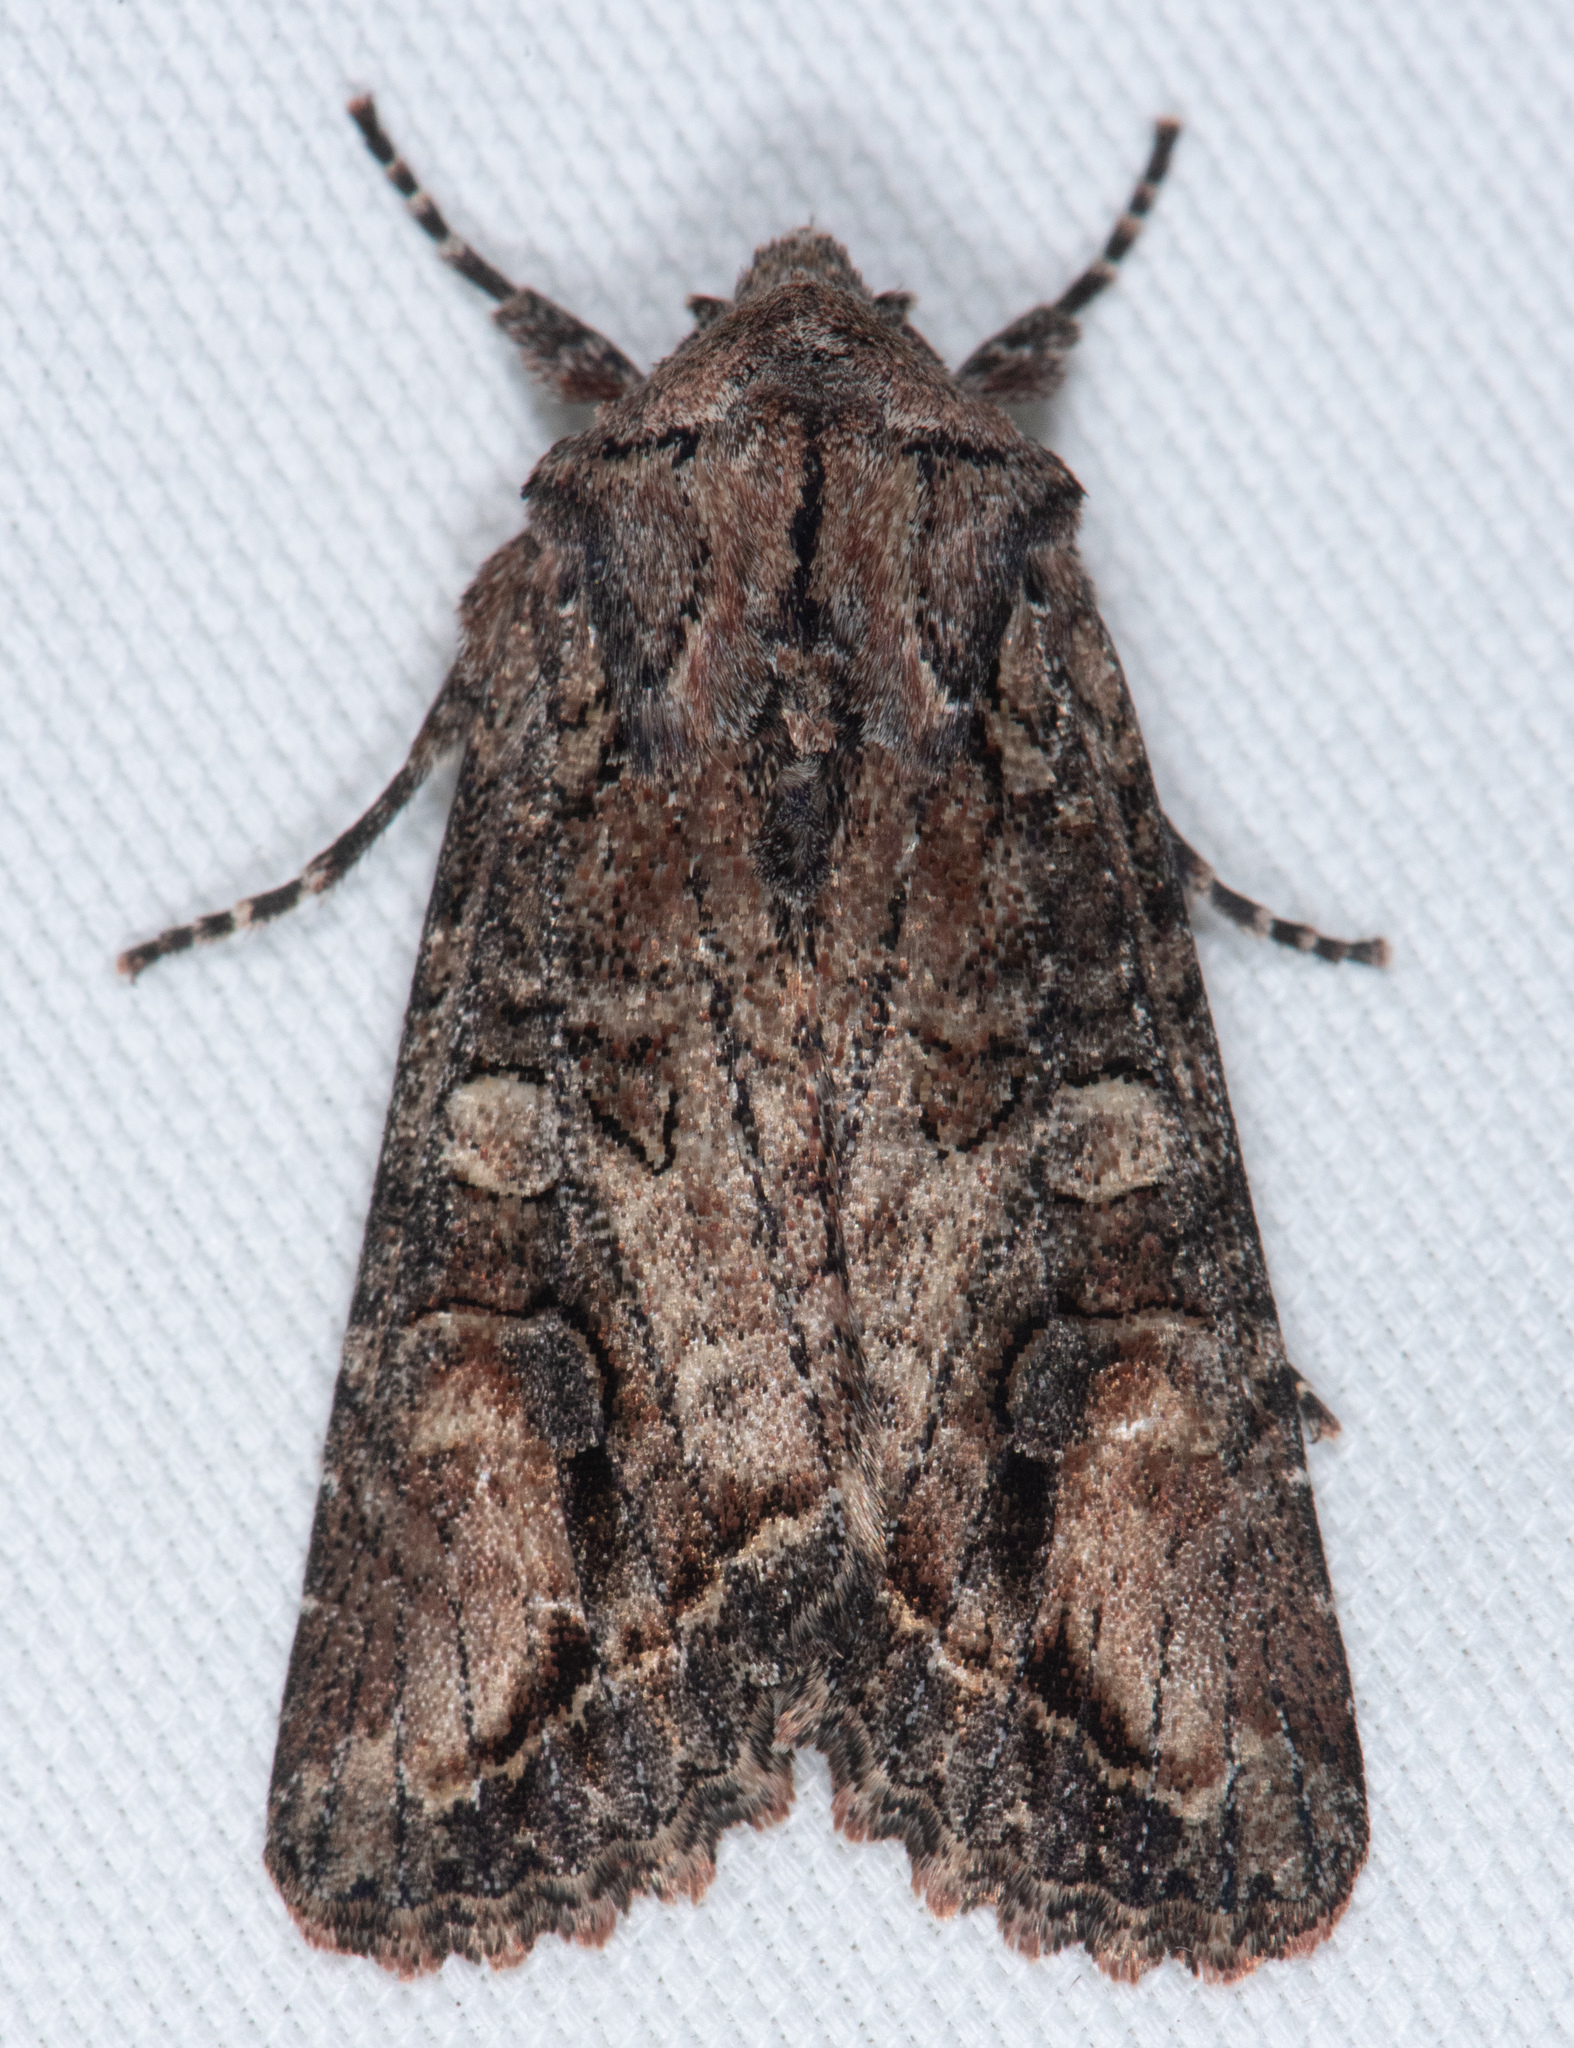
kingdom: Animalia
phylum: Arthropoda
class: Insecta
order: Lepidoptera
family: Noctuidae
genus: Egira
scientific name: Egira perlubens
